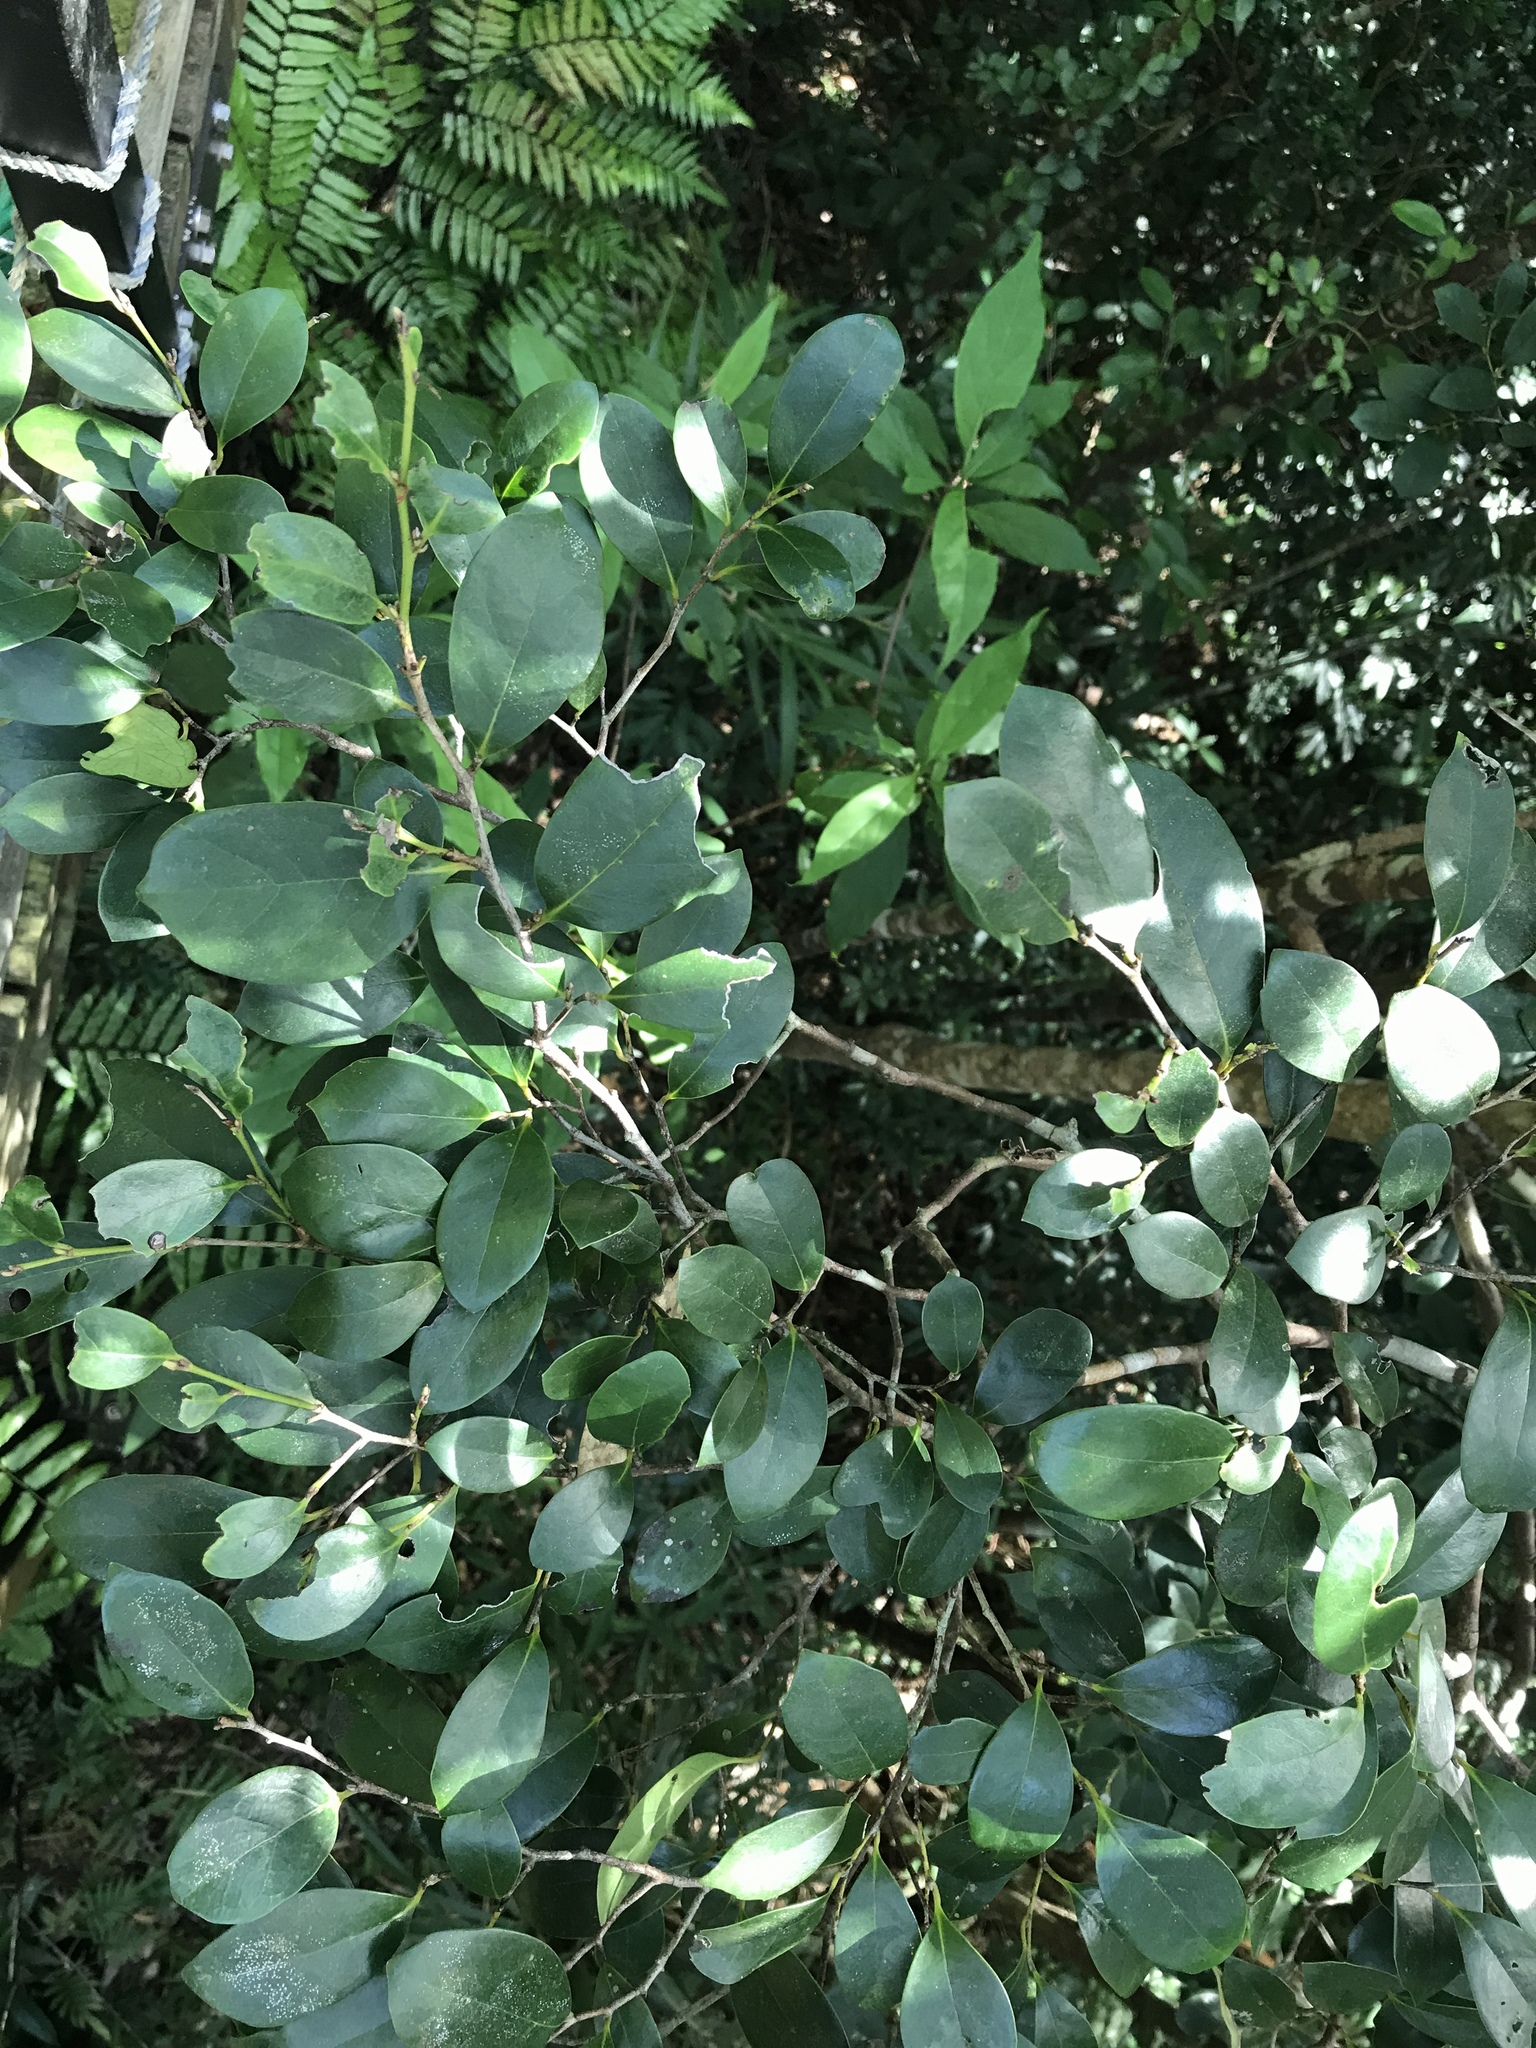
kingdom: Plantae
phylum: Tracheophyta
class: Magnoliopsida
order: Saxifragales
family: Hamamelidaceae
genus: Distylium
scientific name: Distylium racemosum
